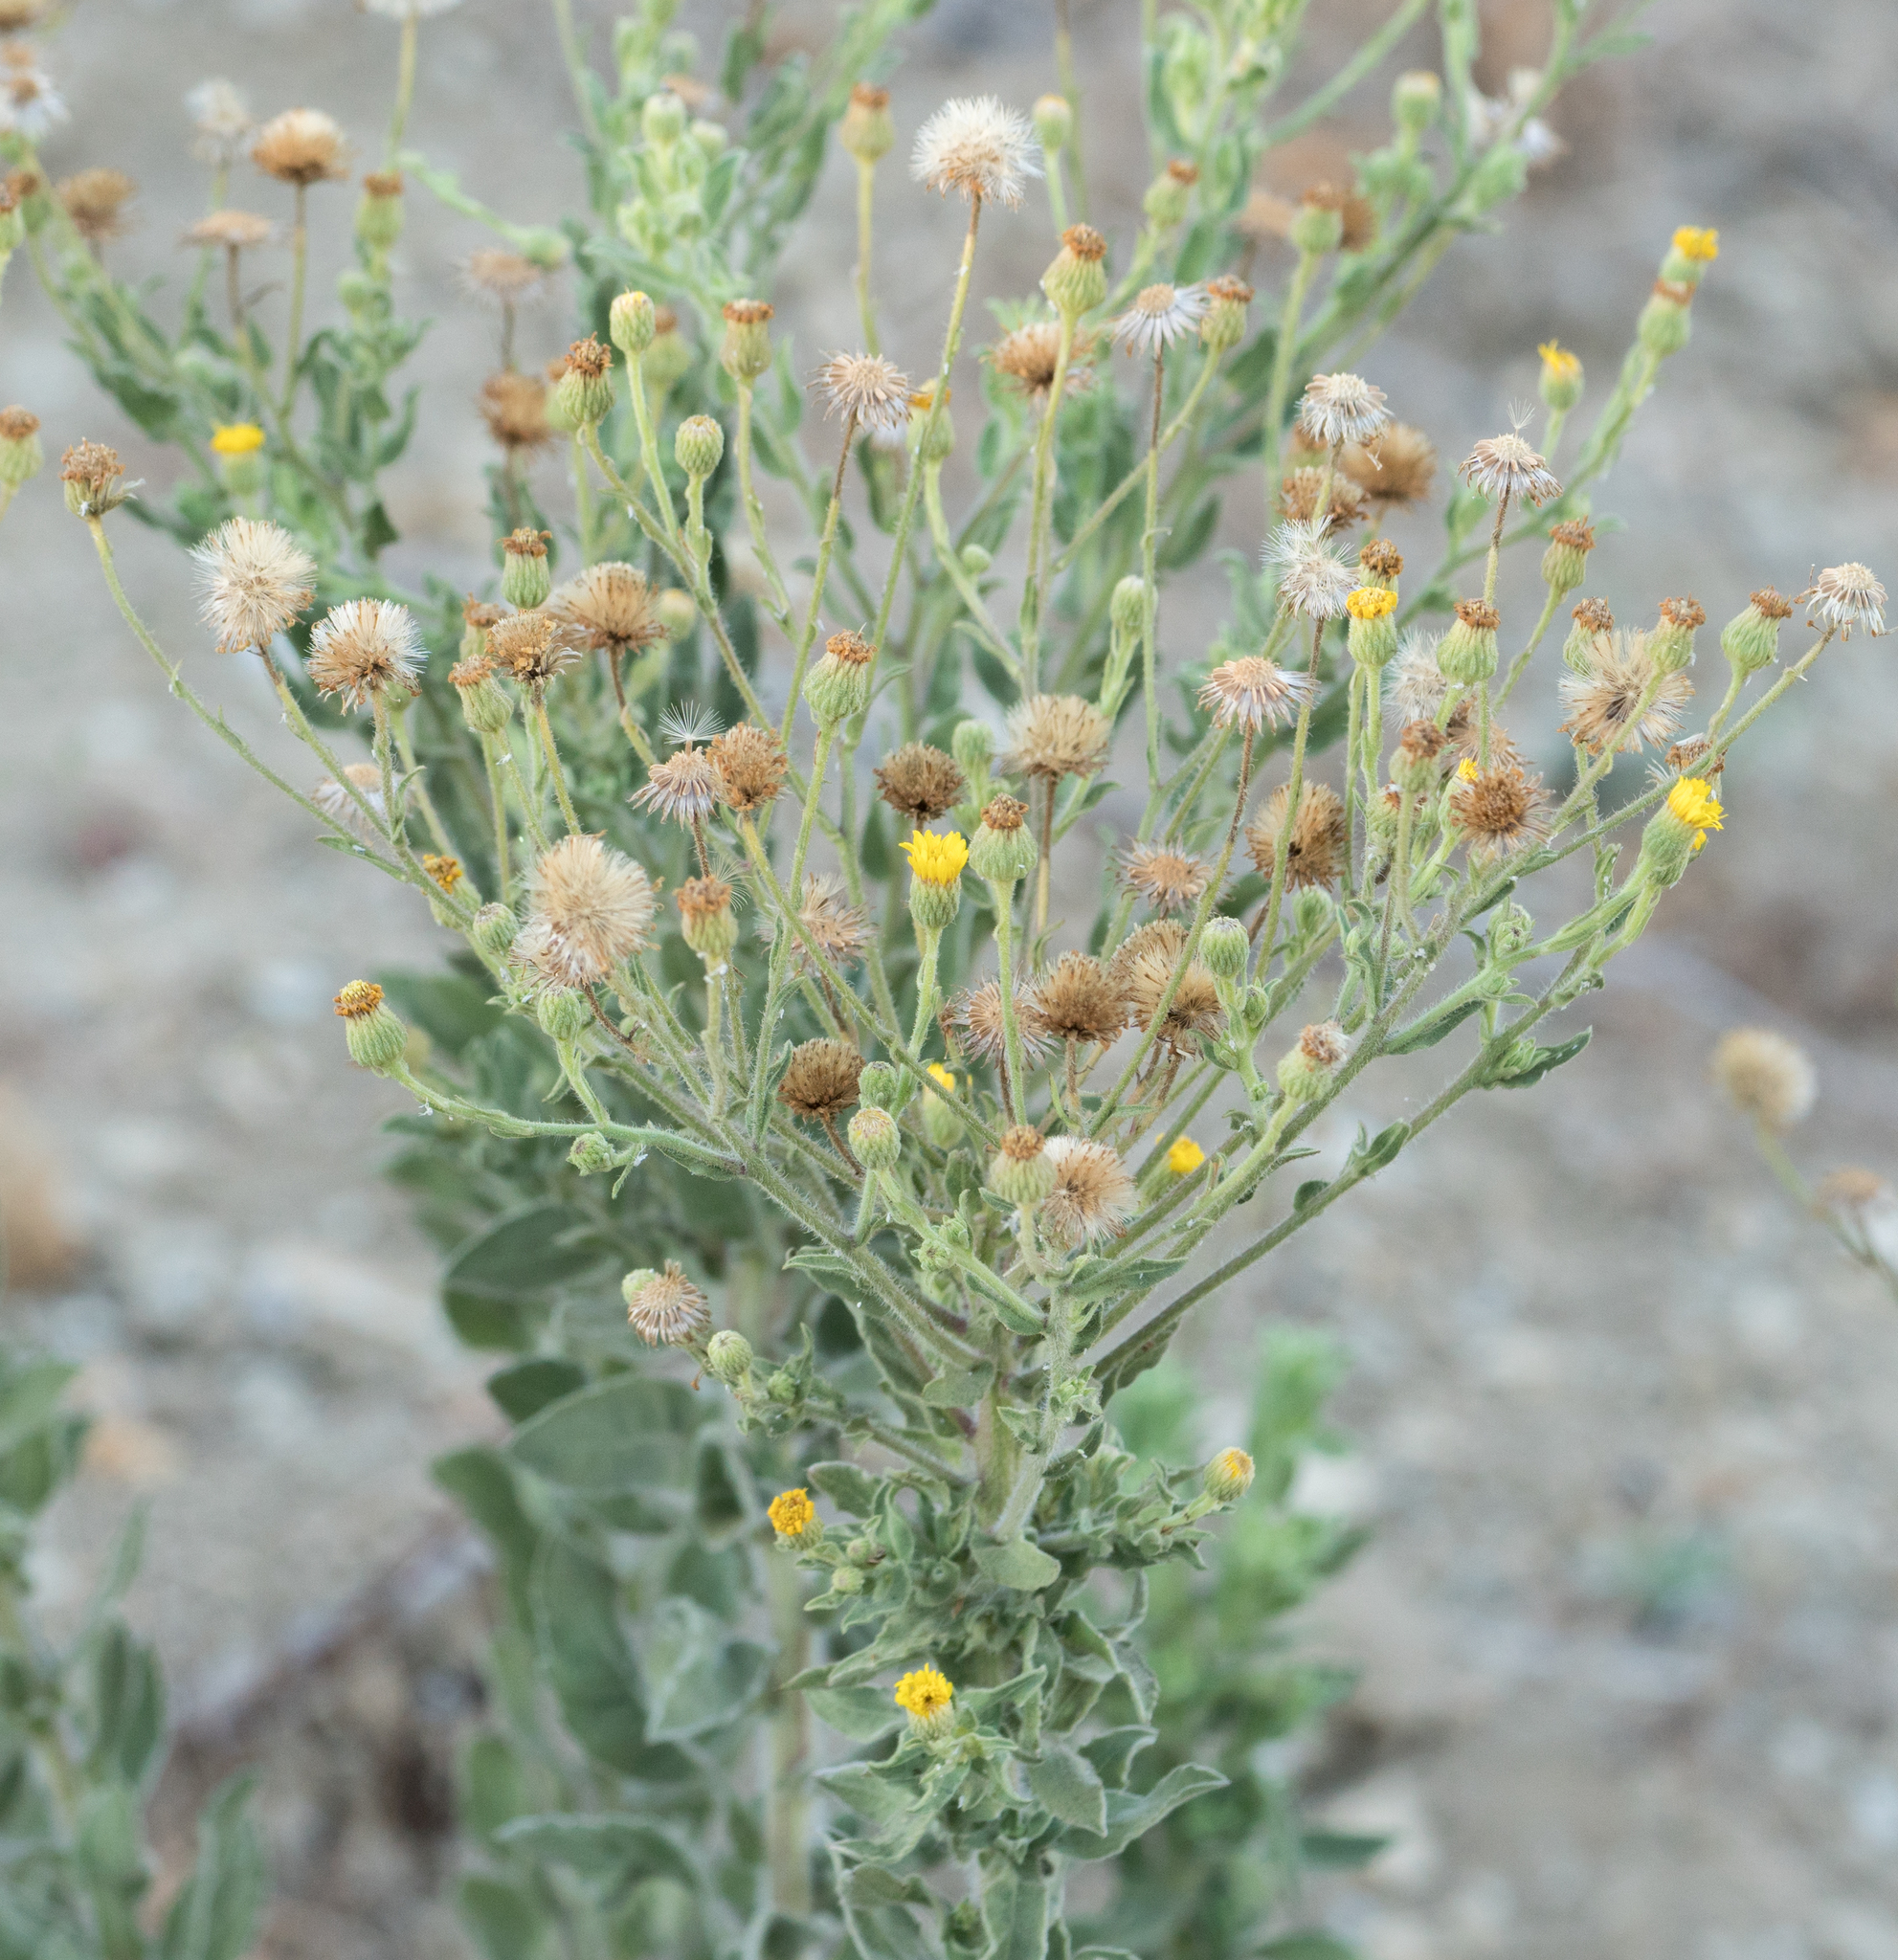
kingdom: Plantae
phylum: Tracheophyta
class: Magnoliopsida
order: Asterales
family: Asteraceae
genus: Heterotheca
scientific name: Heterotheca grandiflora
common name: Telegraphweed
